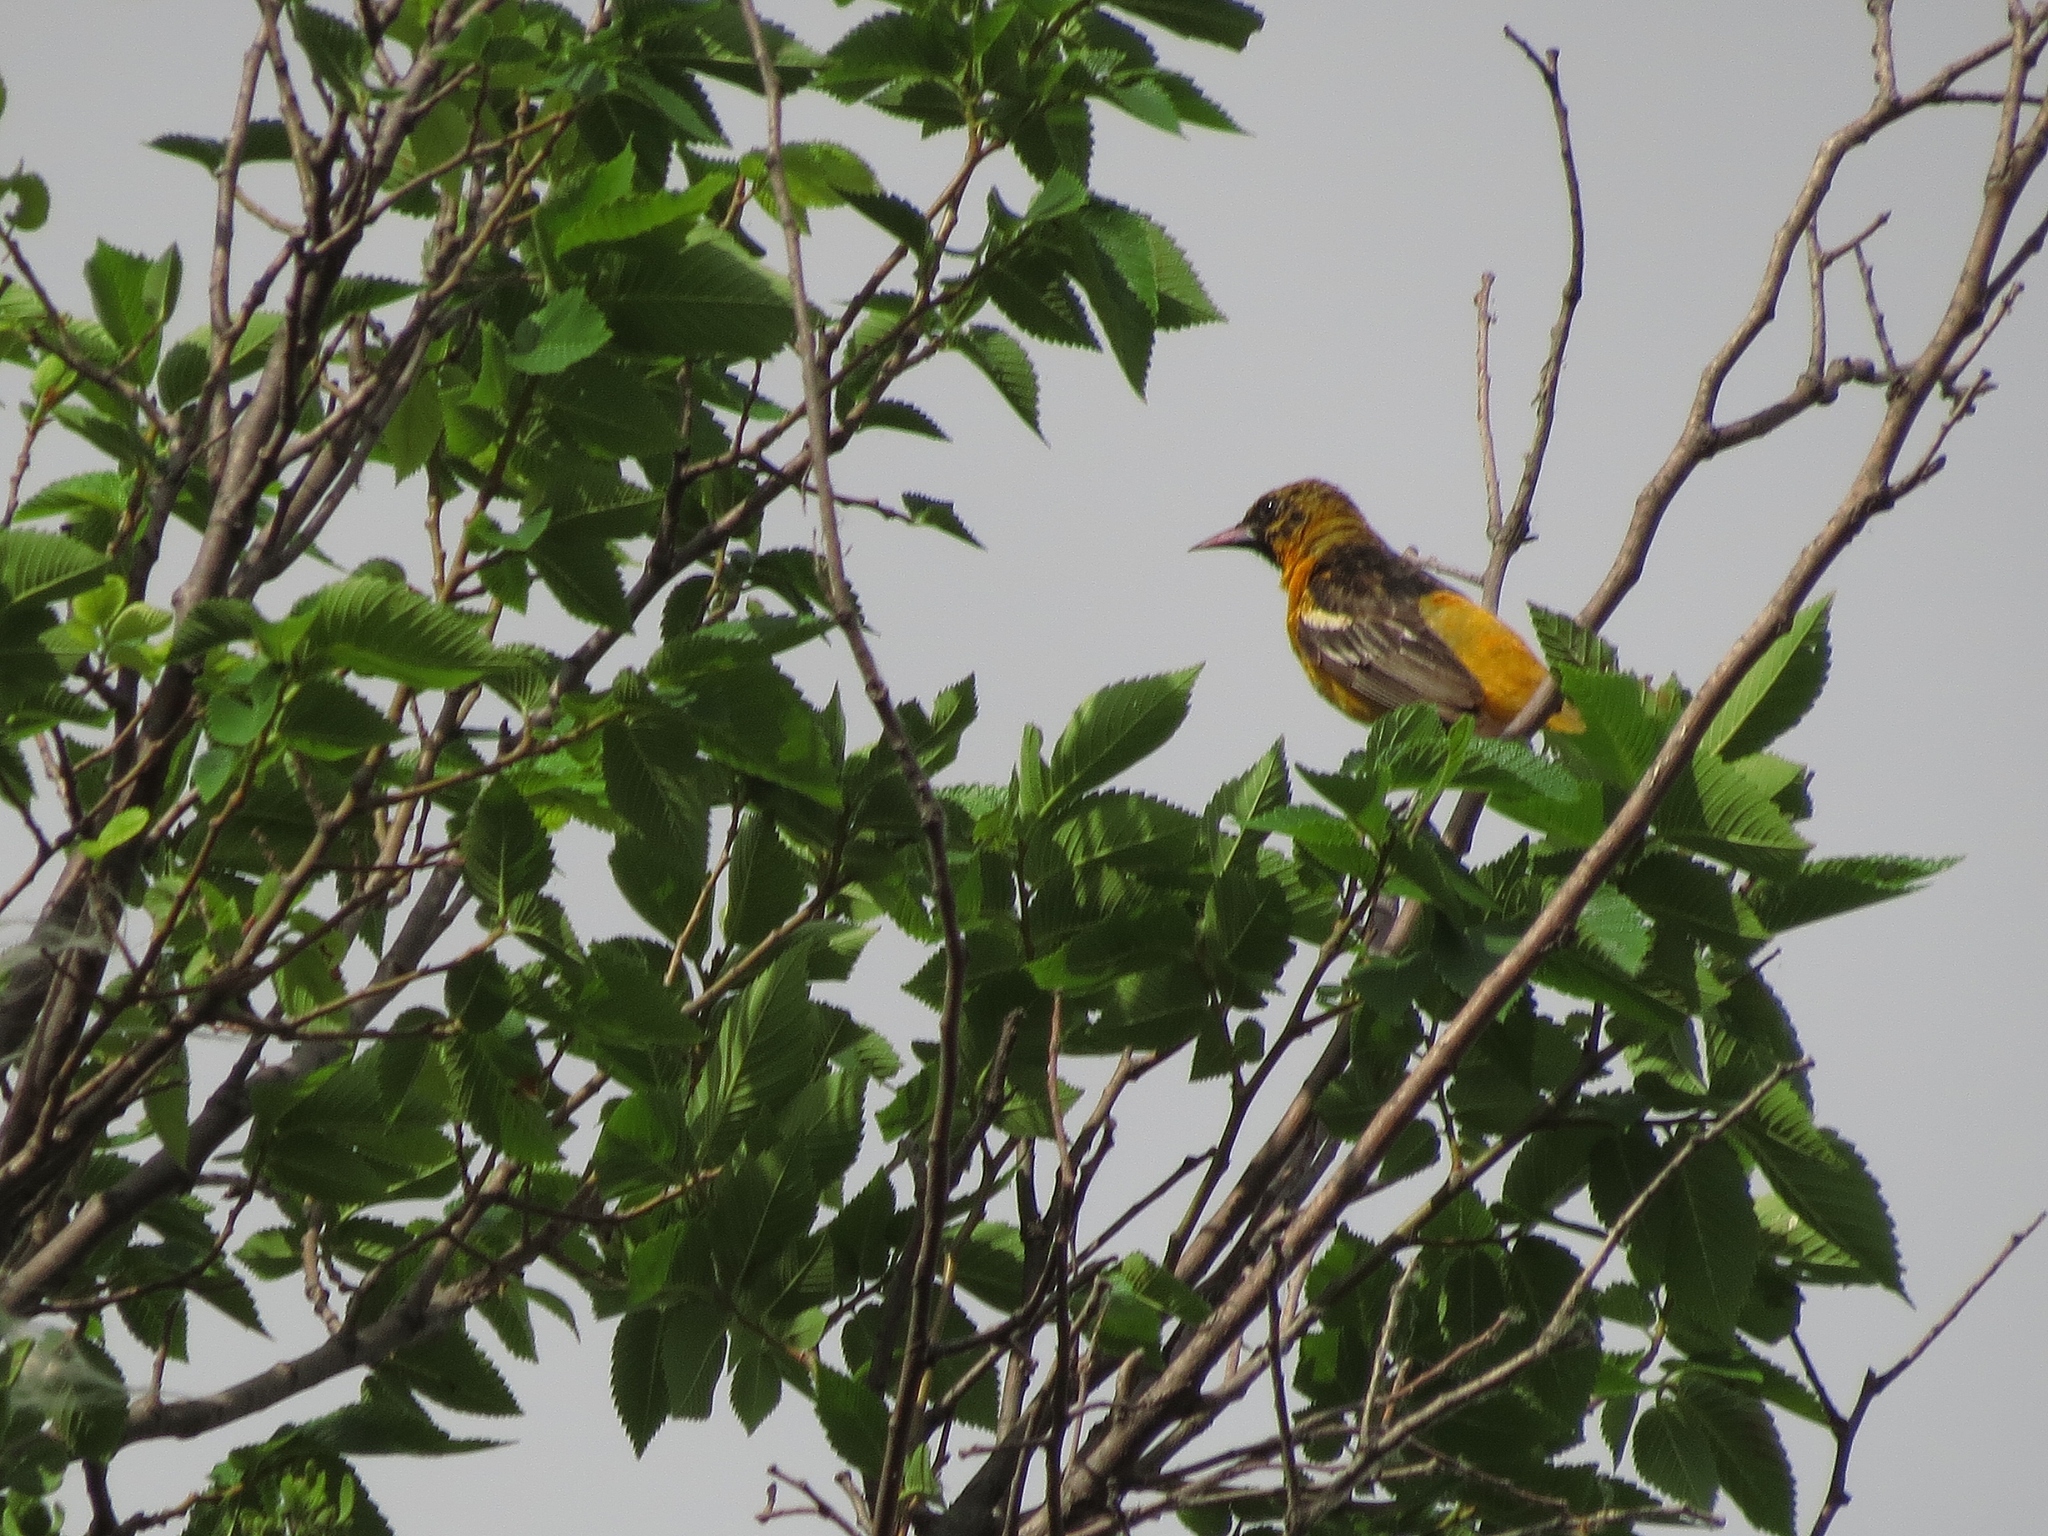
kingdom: Animalia
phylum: Chordata
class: Aves
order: Passeriformes
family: Icteridae
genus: Icterus
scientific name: Icterus galbula
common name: Baltimore oriole
